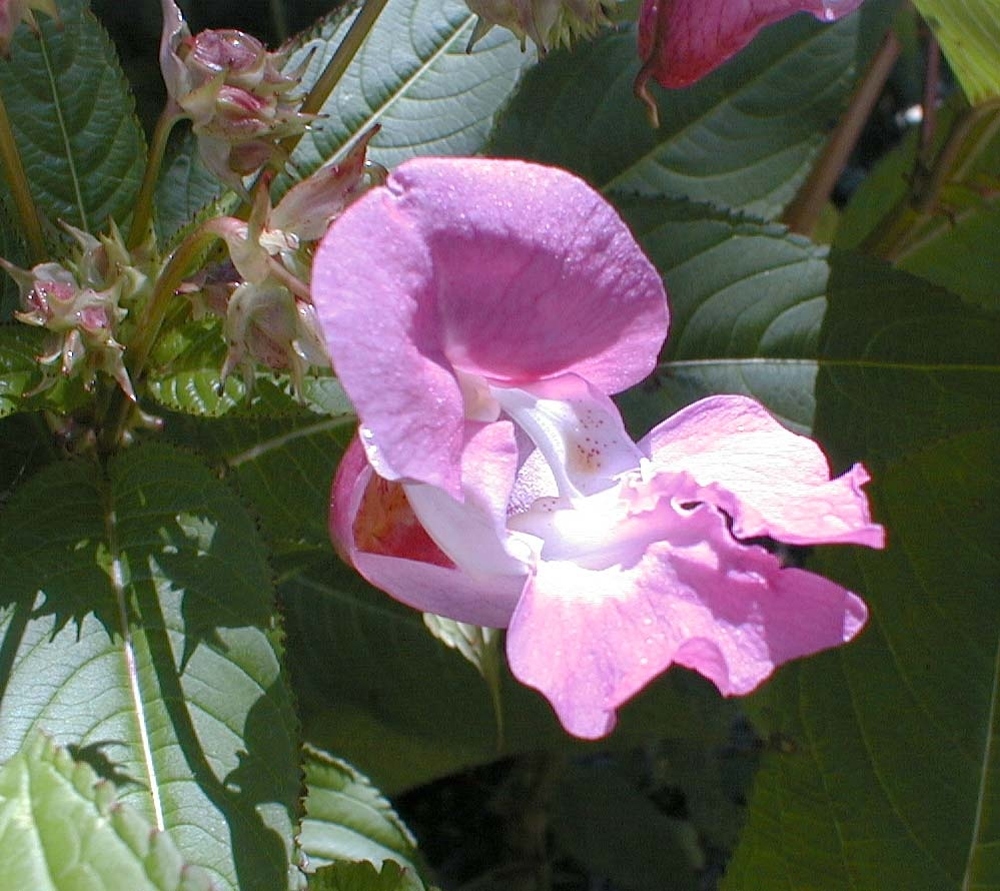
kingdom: Plantae
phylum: Tracheophyta
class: Magnoliopsida
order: Ericales
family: Balsaminaceae
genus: Impatiens
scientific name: Impatiens glandulifera
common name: Himalayan balsam
